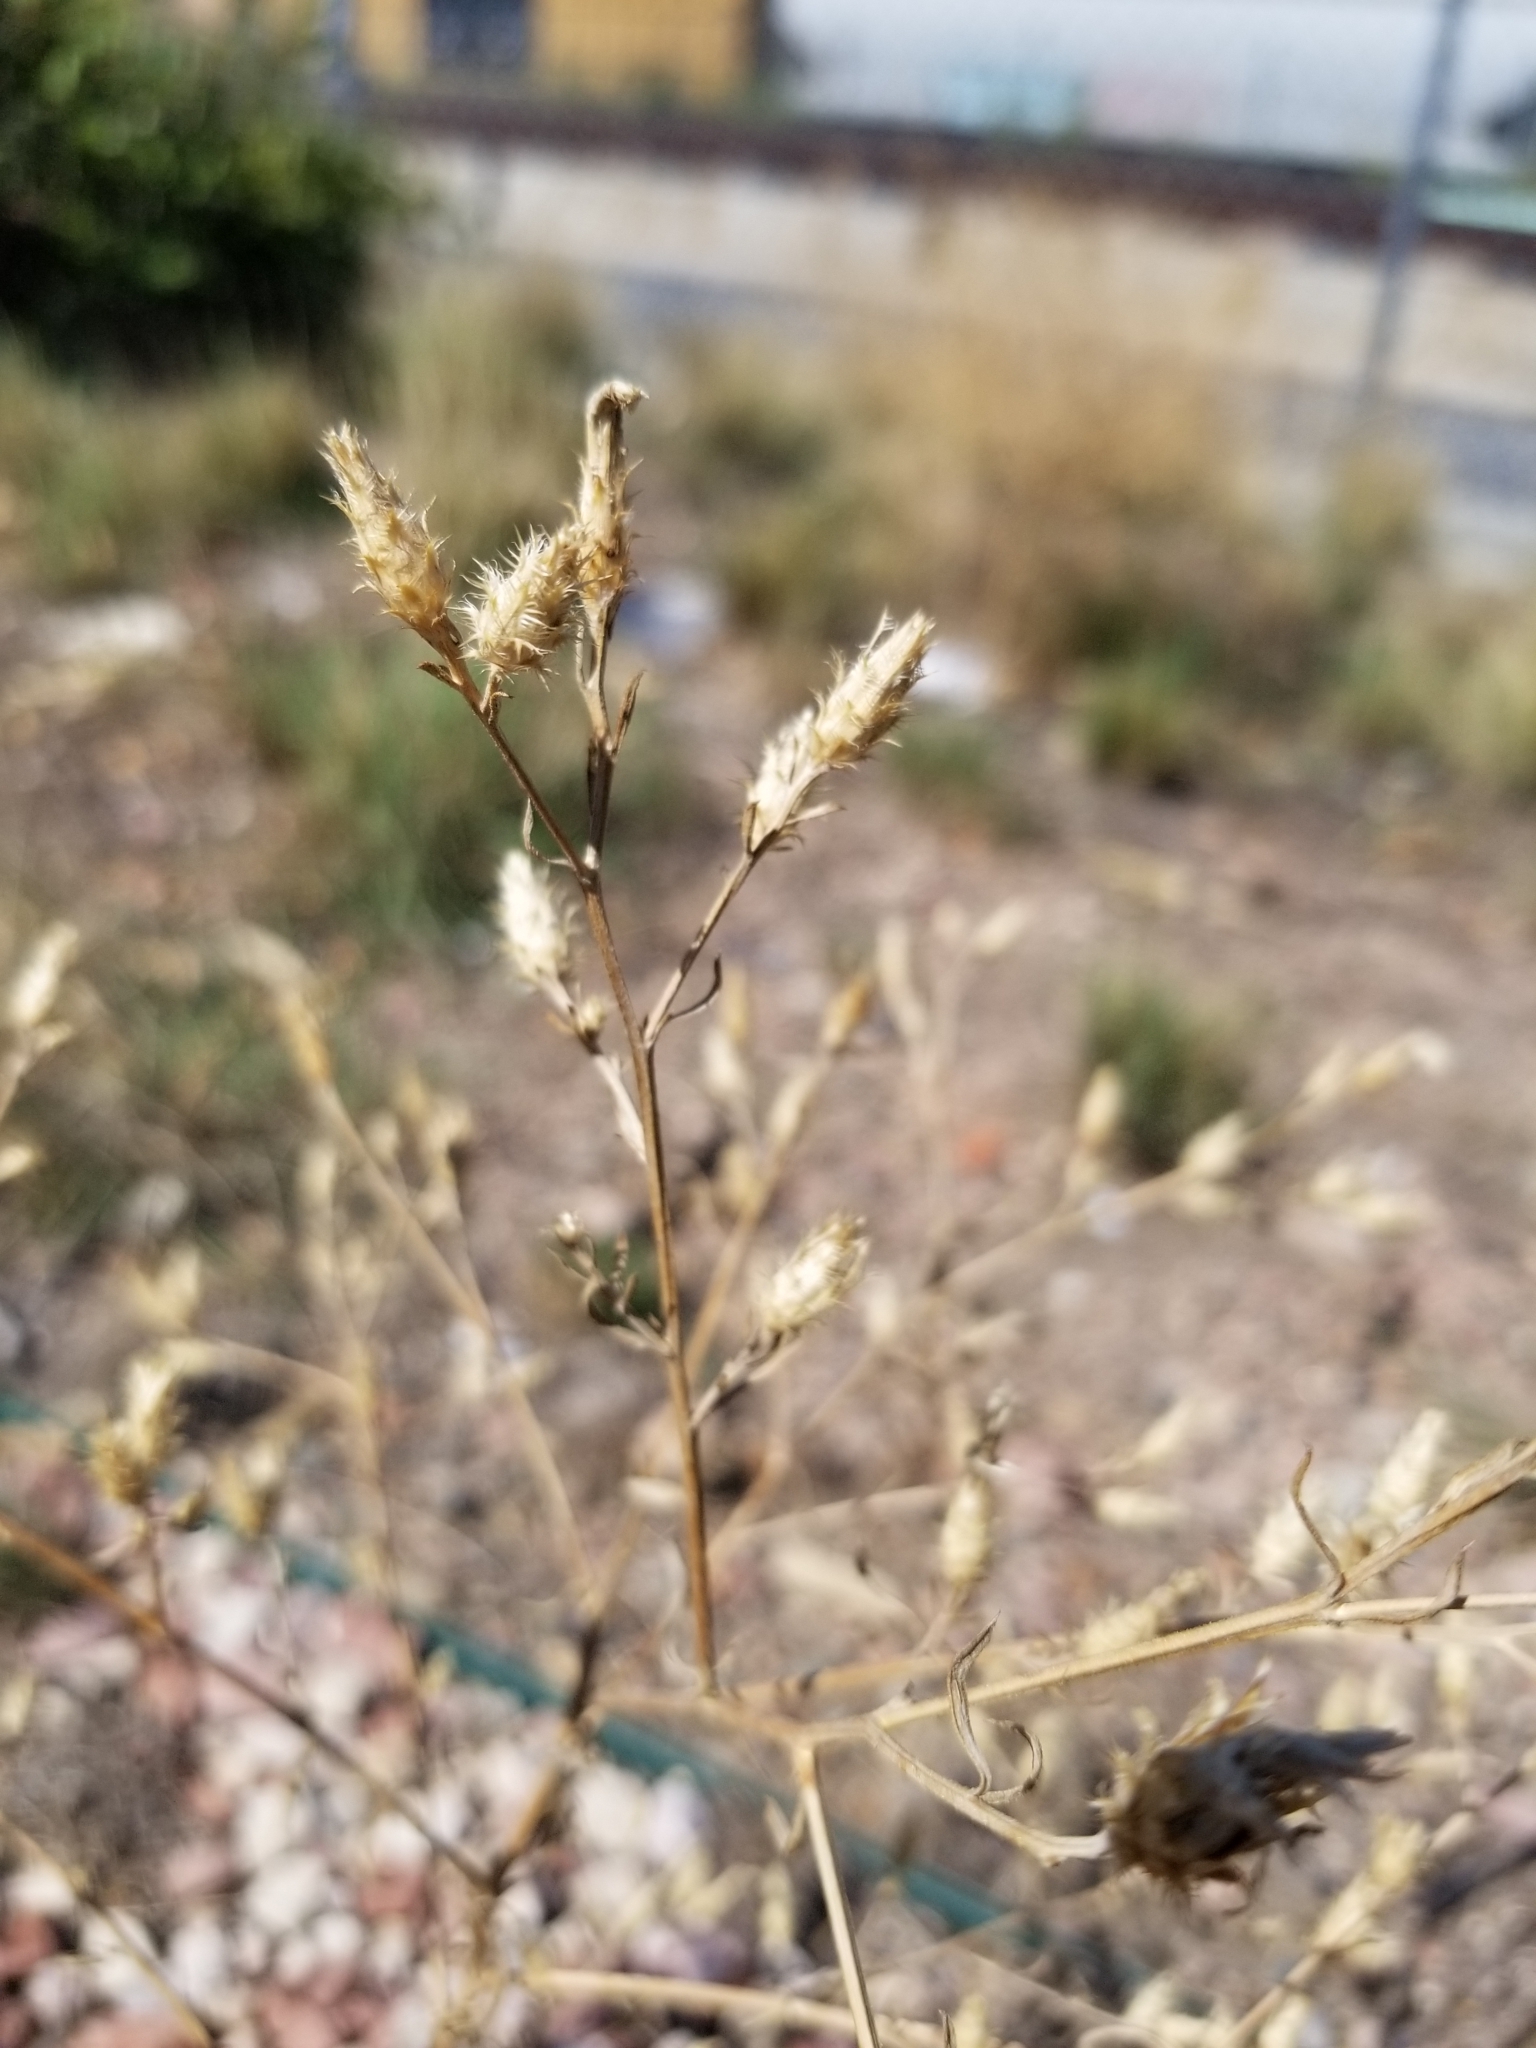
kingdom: Plantae
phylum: Tracheophyta
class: Magnoliopsida
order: Asterales
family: Asteraceae
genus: Centaurea
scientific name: Centaurea diffusa
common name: Diffuse knapweed
